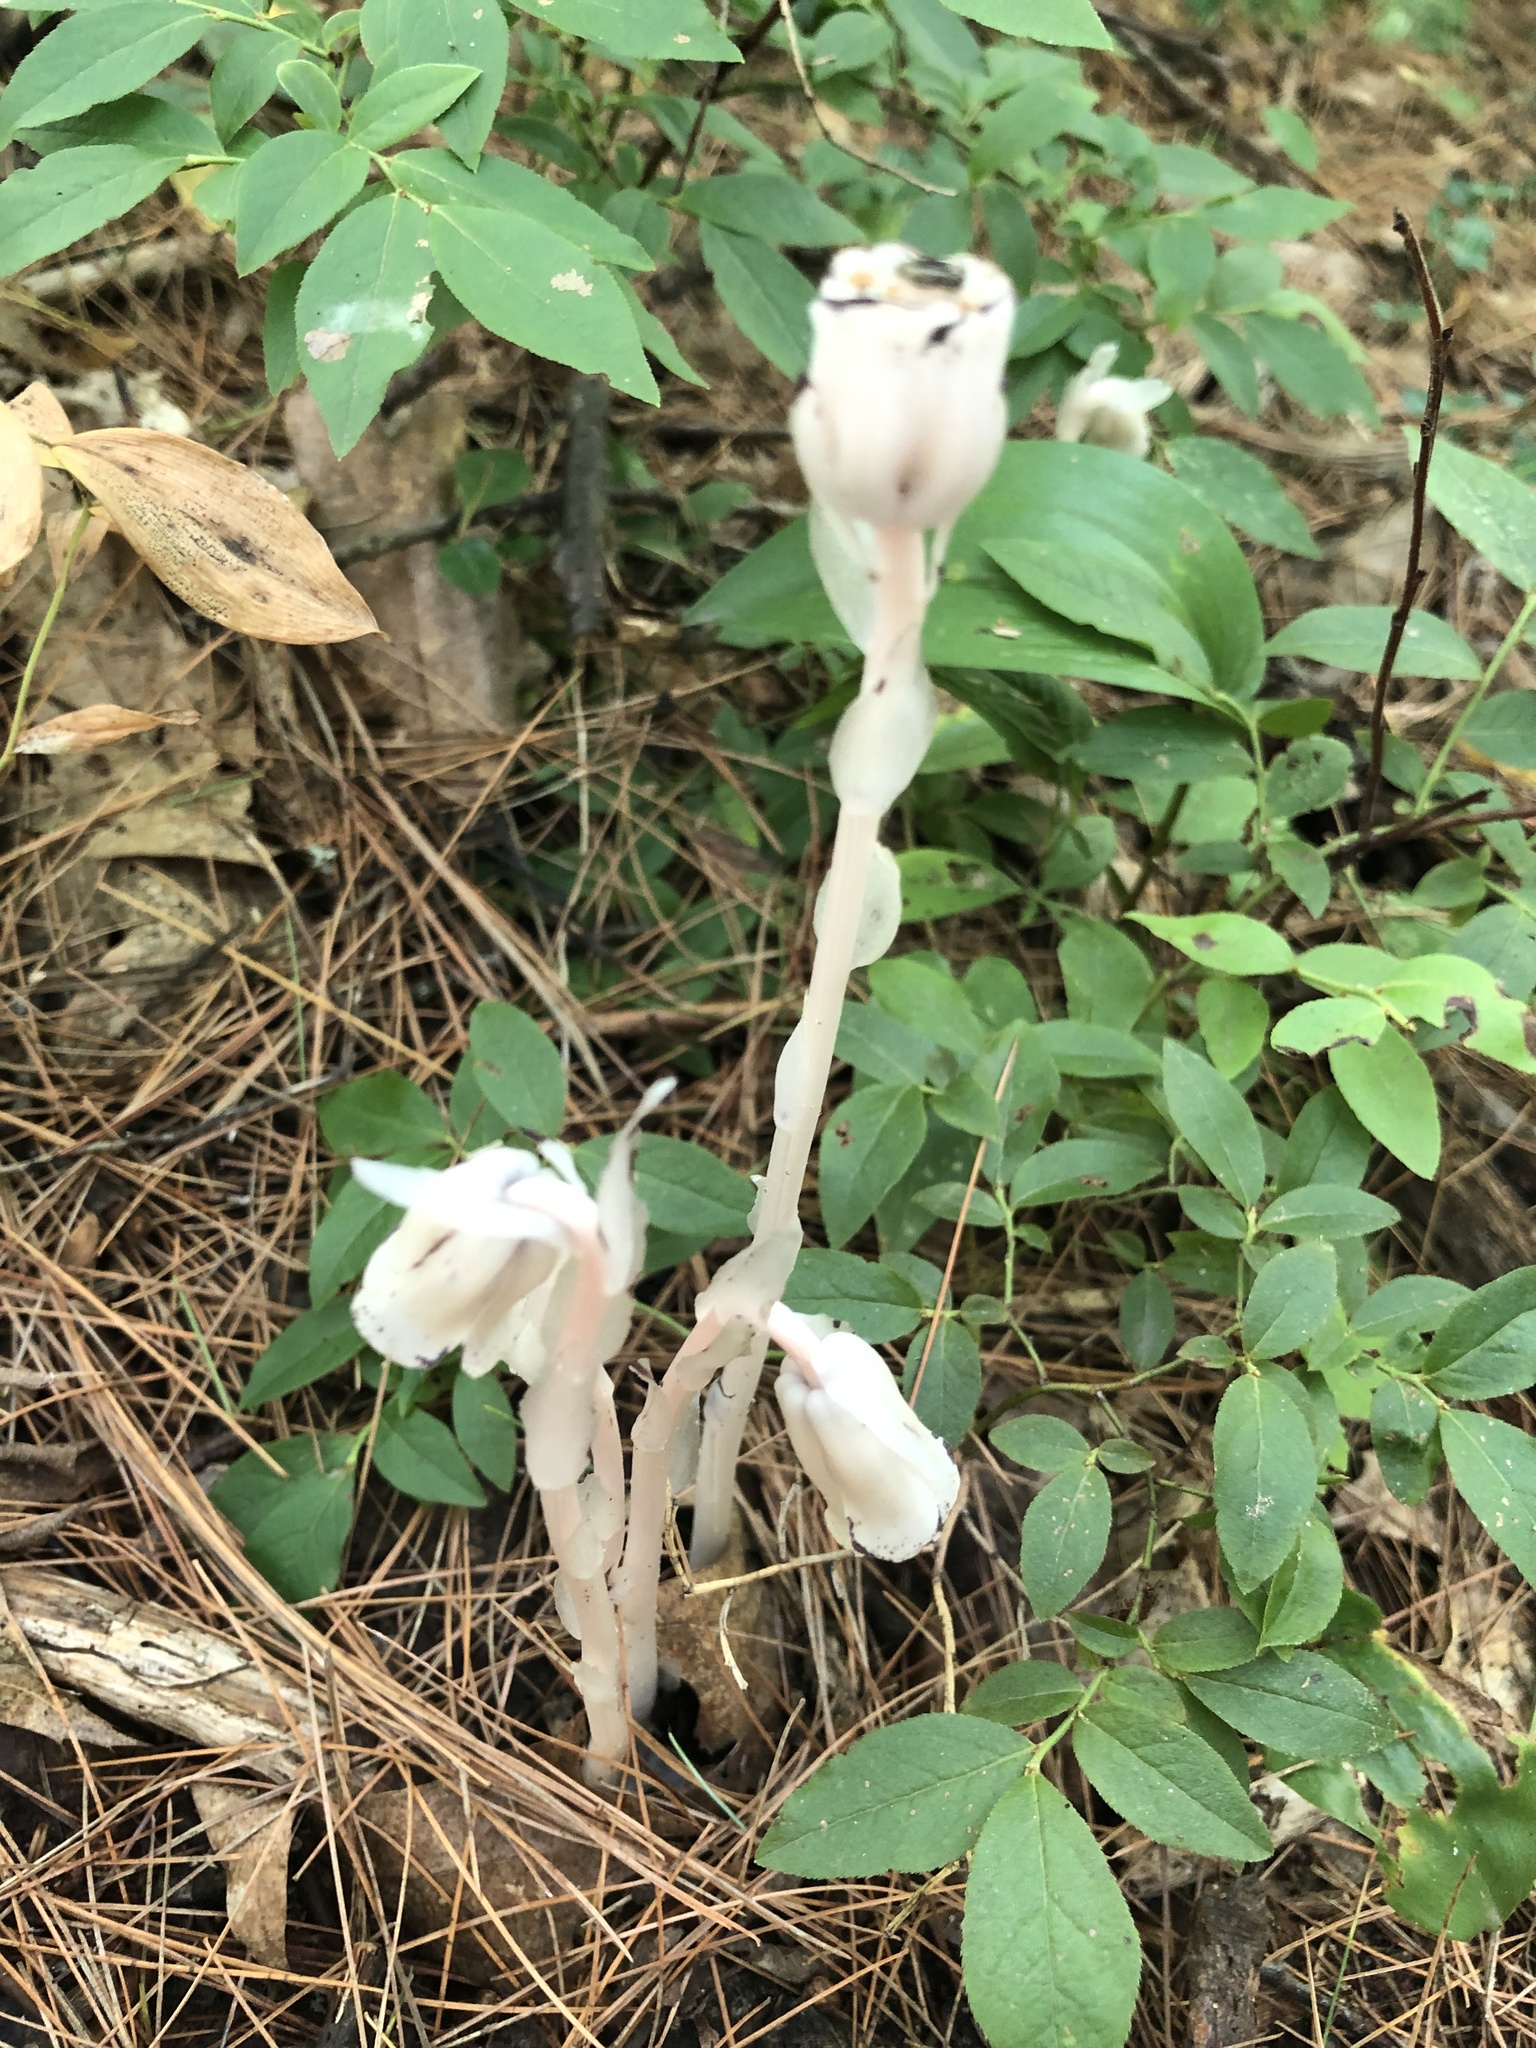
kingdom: Plantae
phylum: Tracheophyta
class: Magnoliopsida
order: Ericales
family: Ericaceae
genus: Monotropa
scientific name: Monotropa uniflora
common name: Convulsion root
